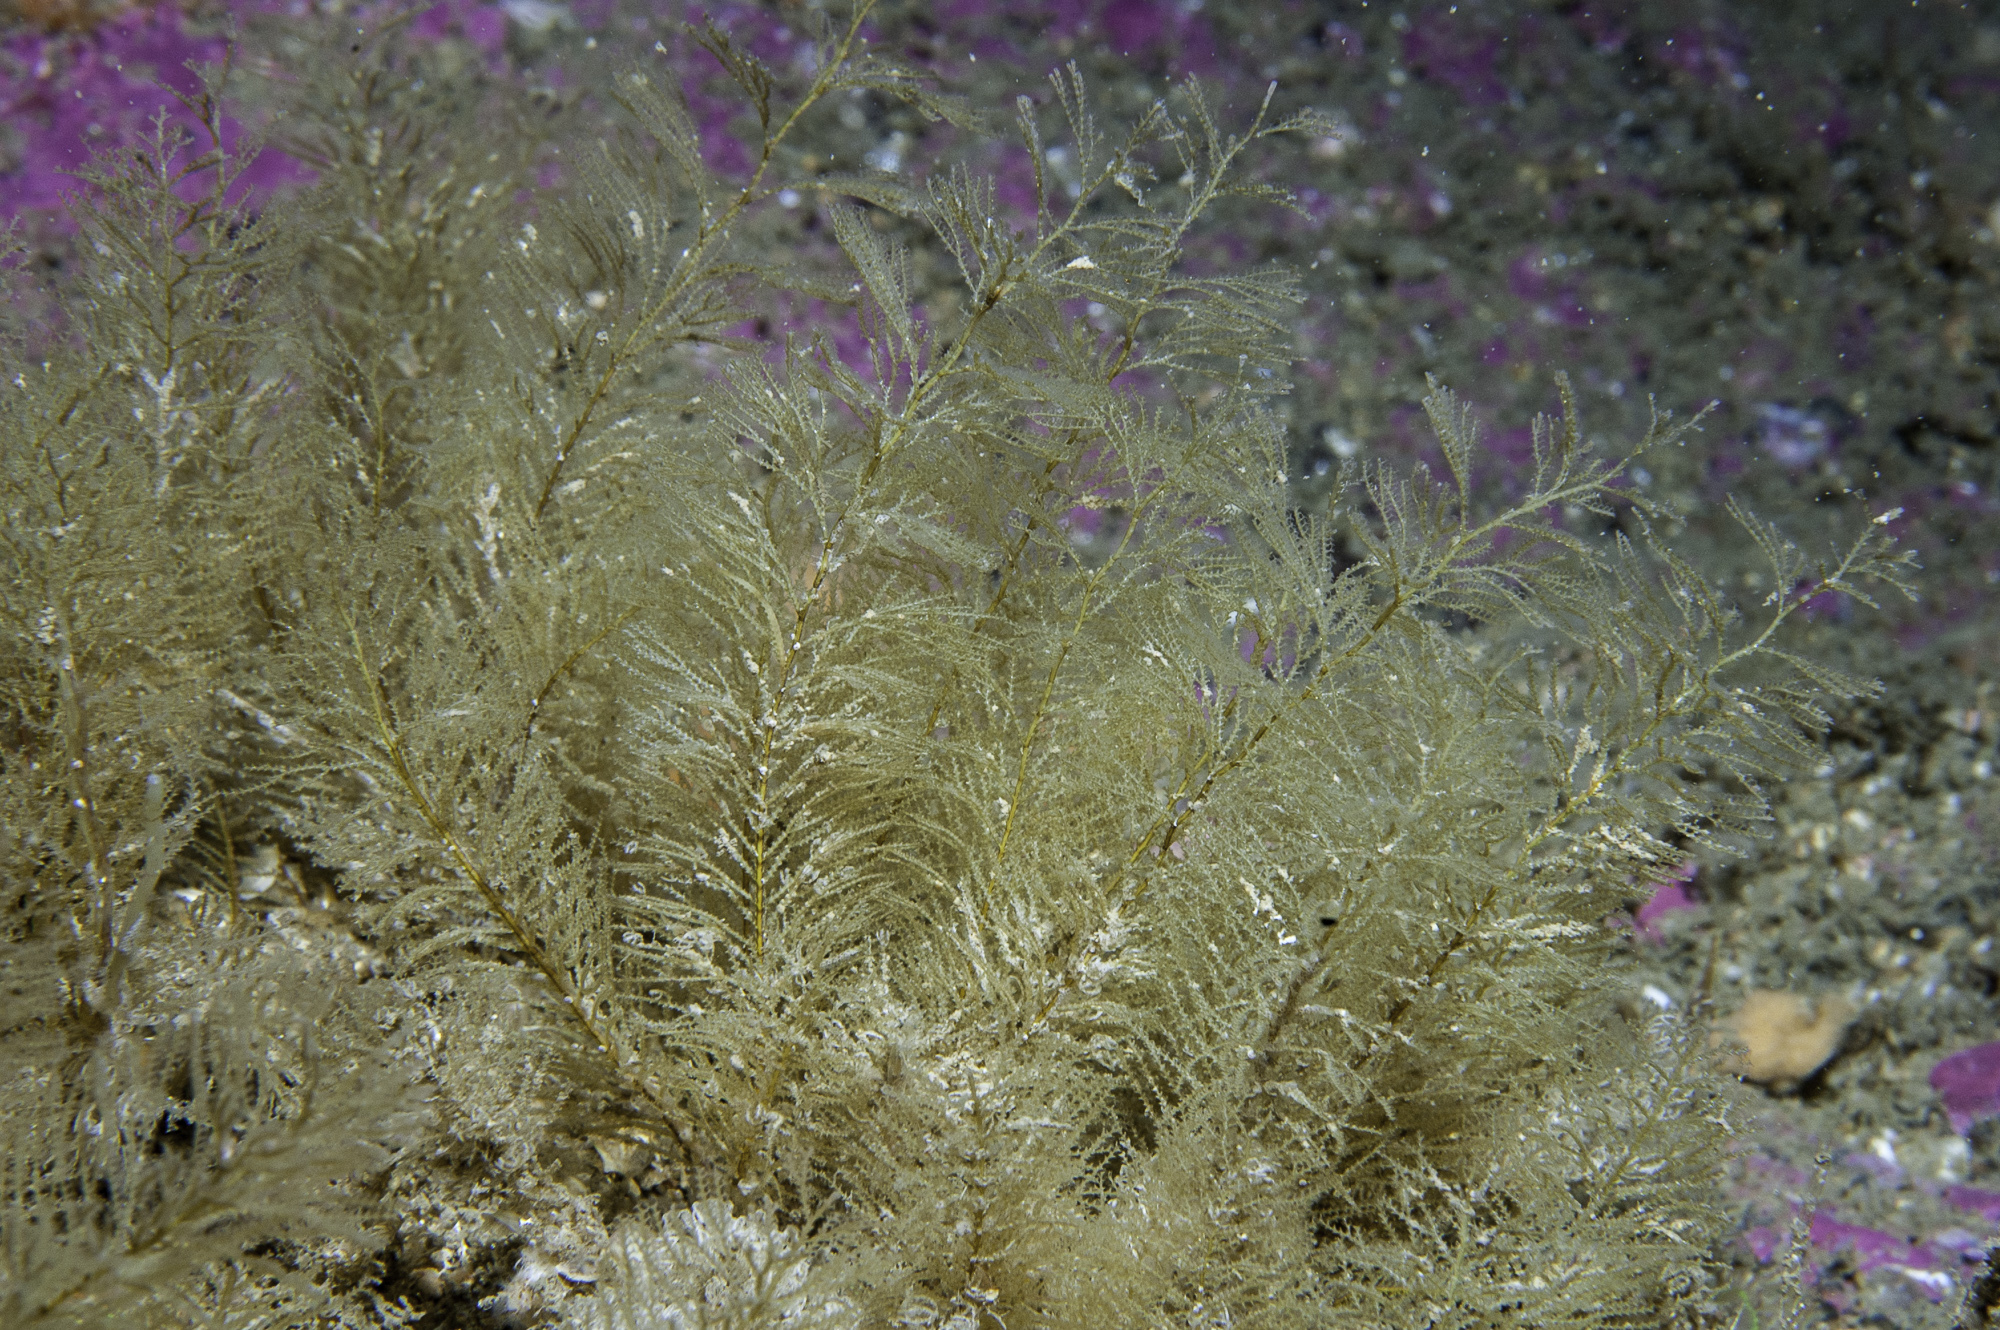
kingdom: Animalia
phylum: Cnidaria
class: Hydrozoa
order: Leptothecata
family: Sertulariidae
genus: Sertularia
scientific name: Sertularia argentea
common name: Squirrel’s tail hydroid
